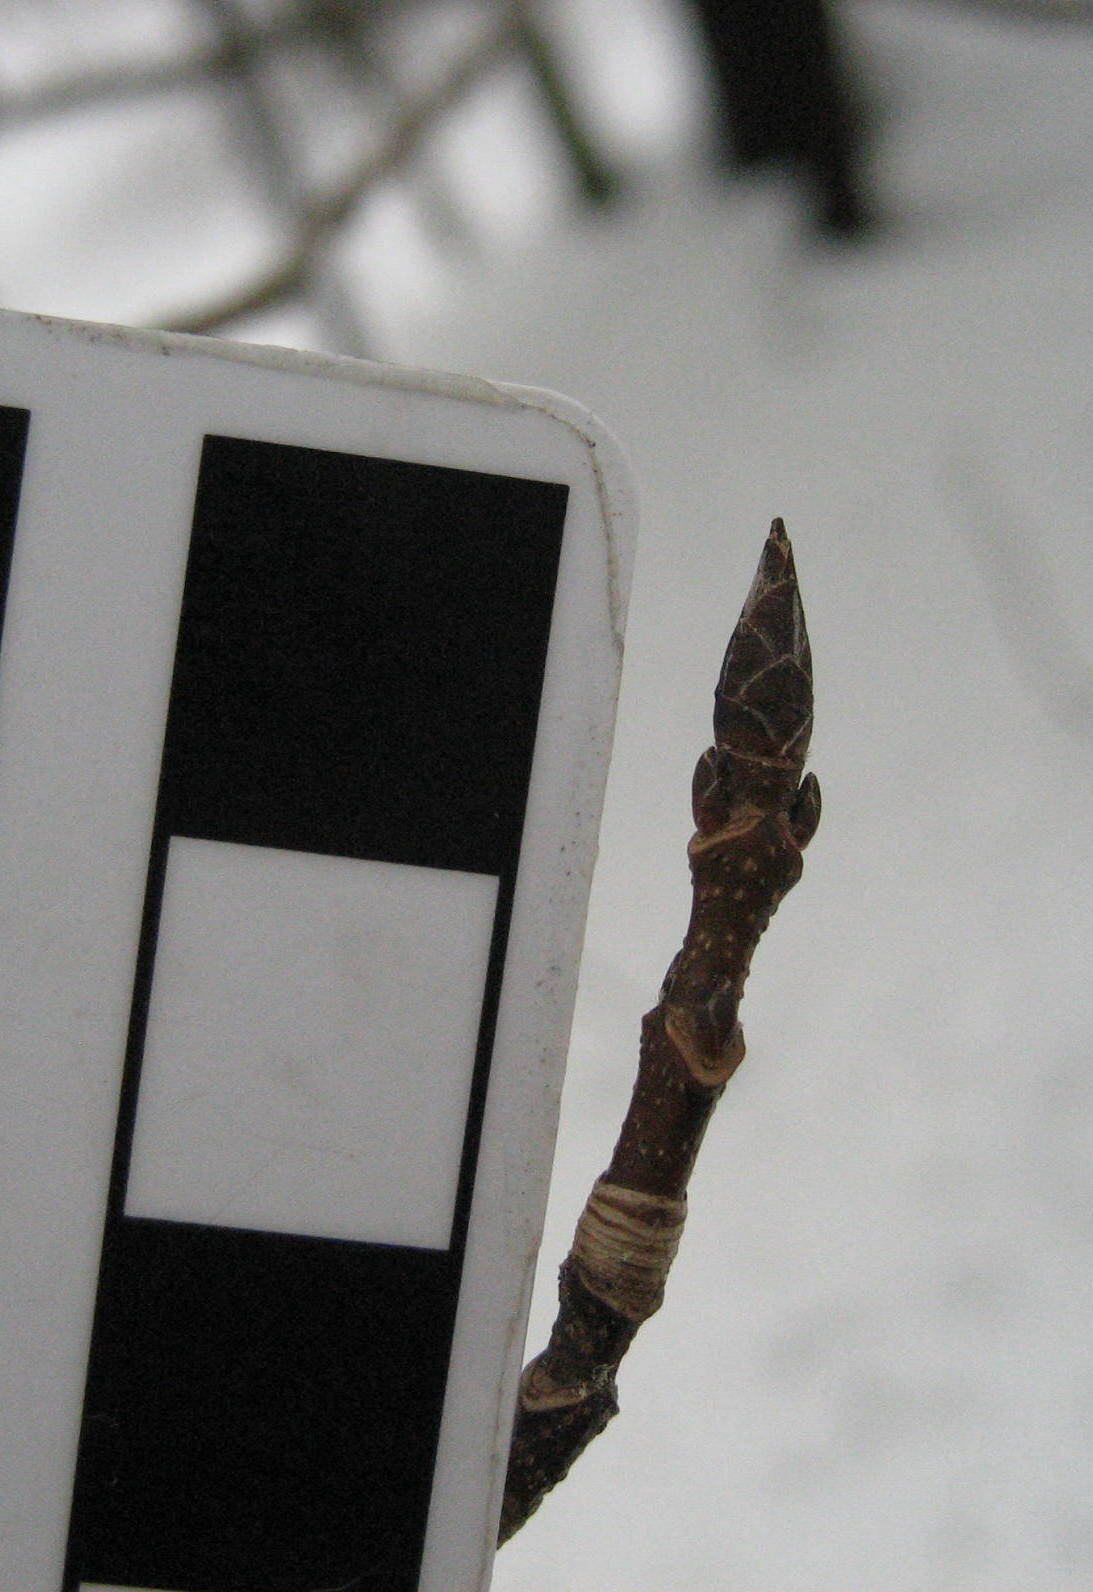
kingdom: Plantae
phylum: Tracheophyta
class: Magnoliopsida
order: Sapindales
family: Sapindaceae
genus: Acer
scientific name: Acer saccharum
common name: Sugar maple
